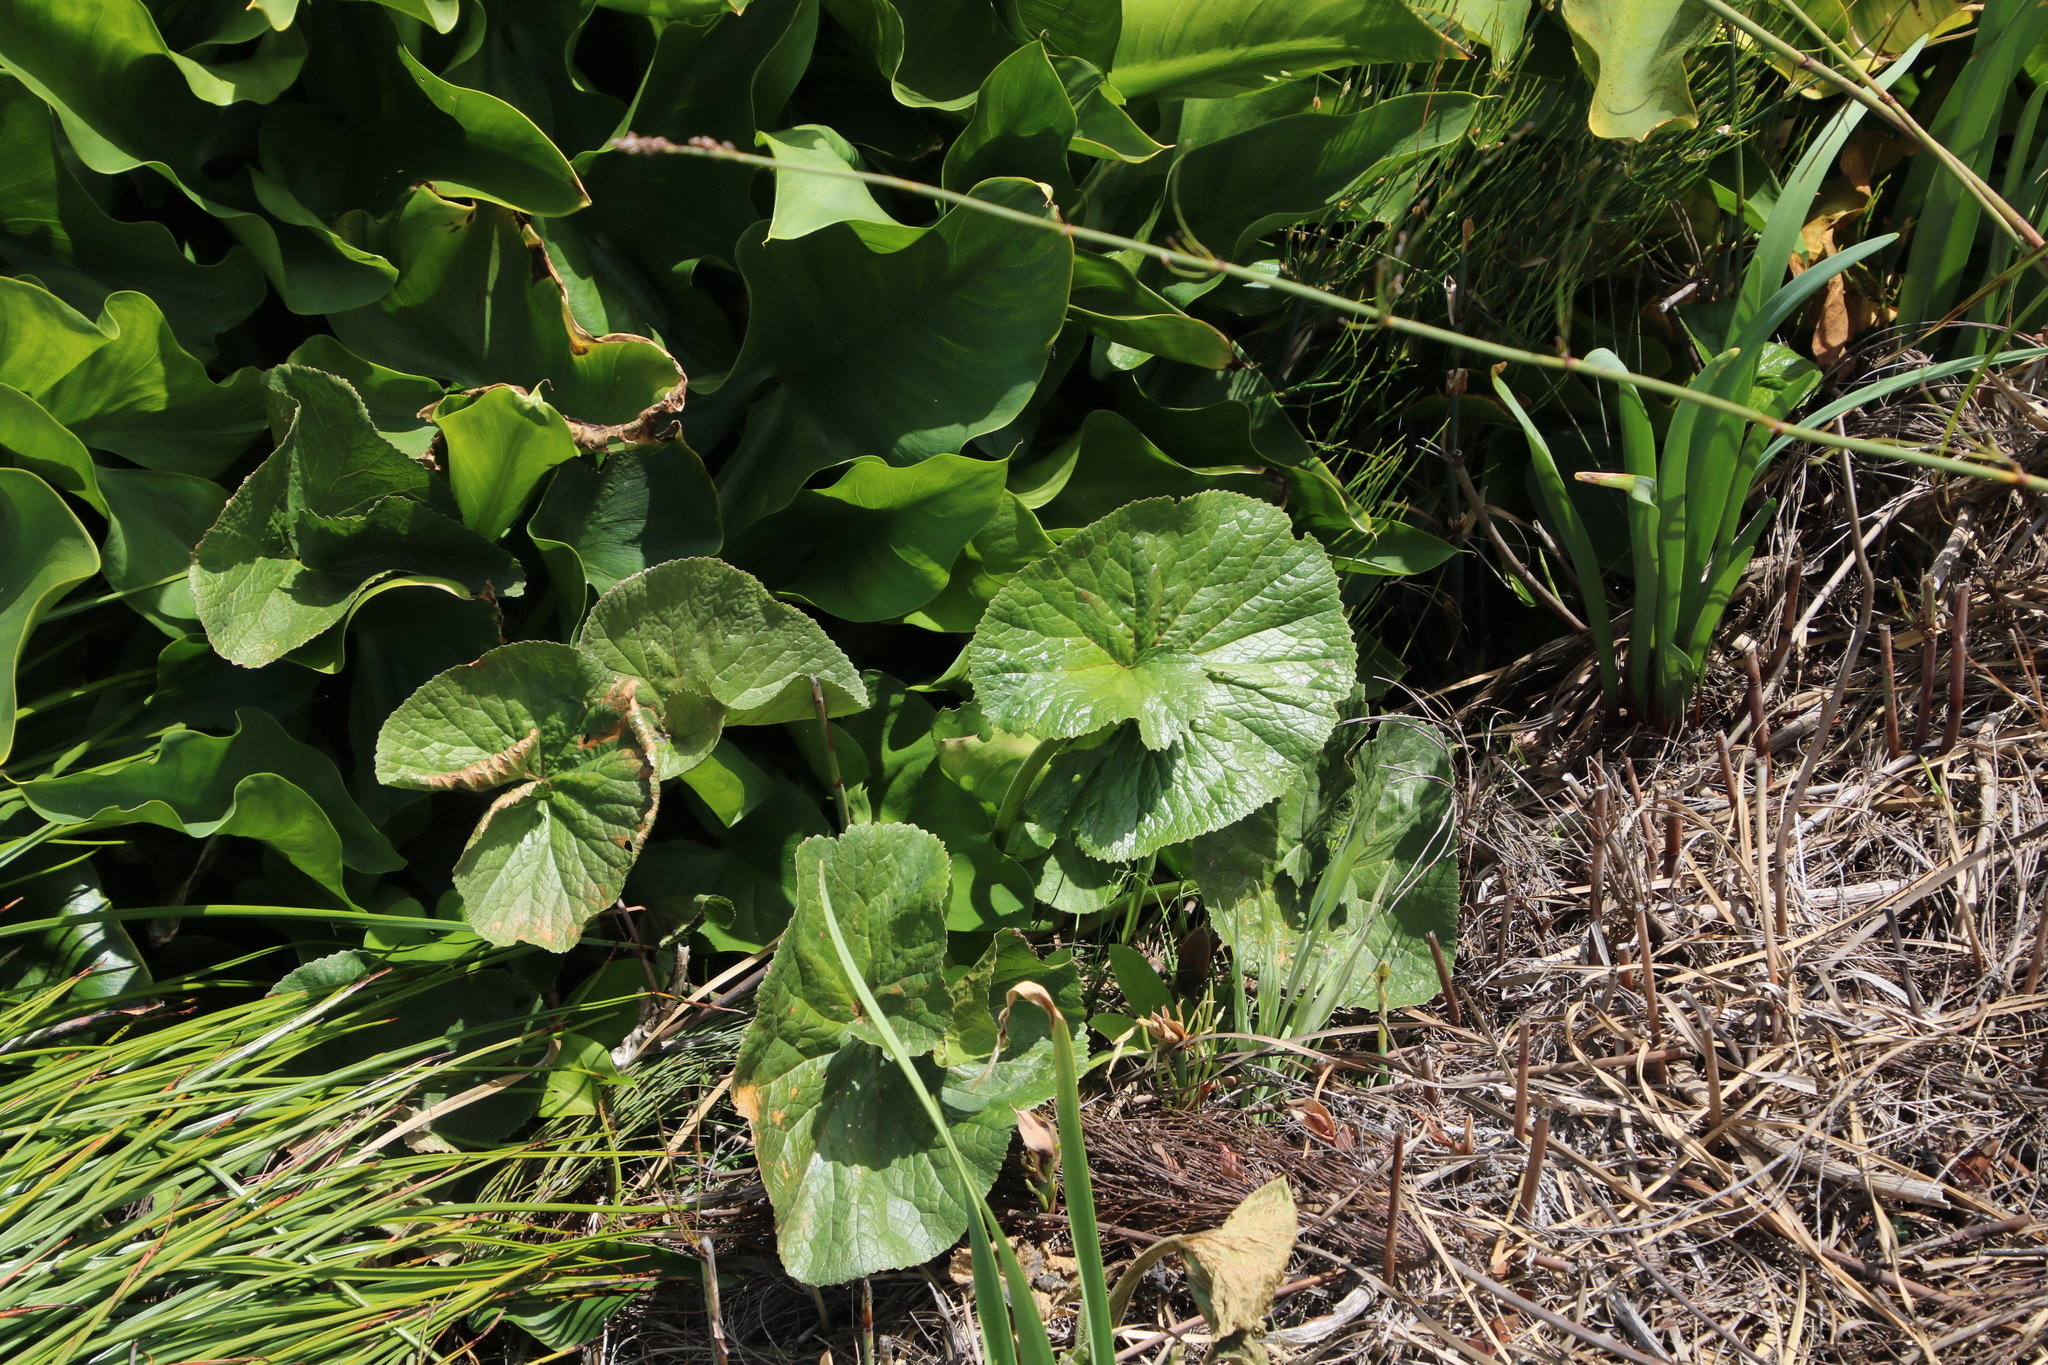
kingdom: Plantae
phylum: Tracheophyta
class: Magnoliopsida
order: Gunnerales
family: Gunneraceae
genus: Gunnera
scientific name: Gunnera perpensa
